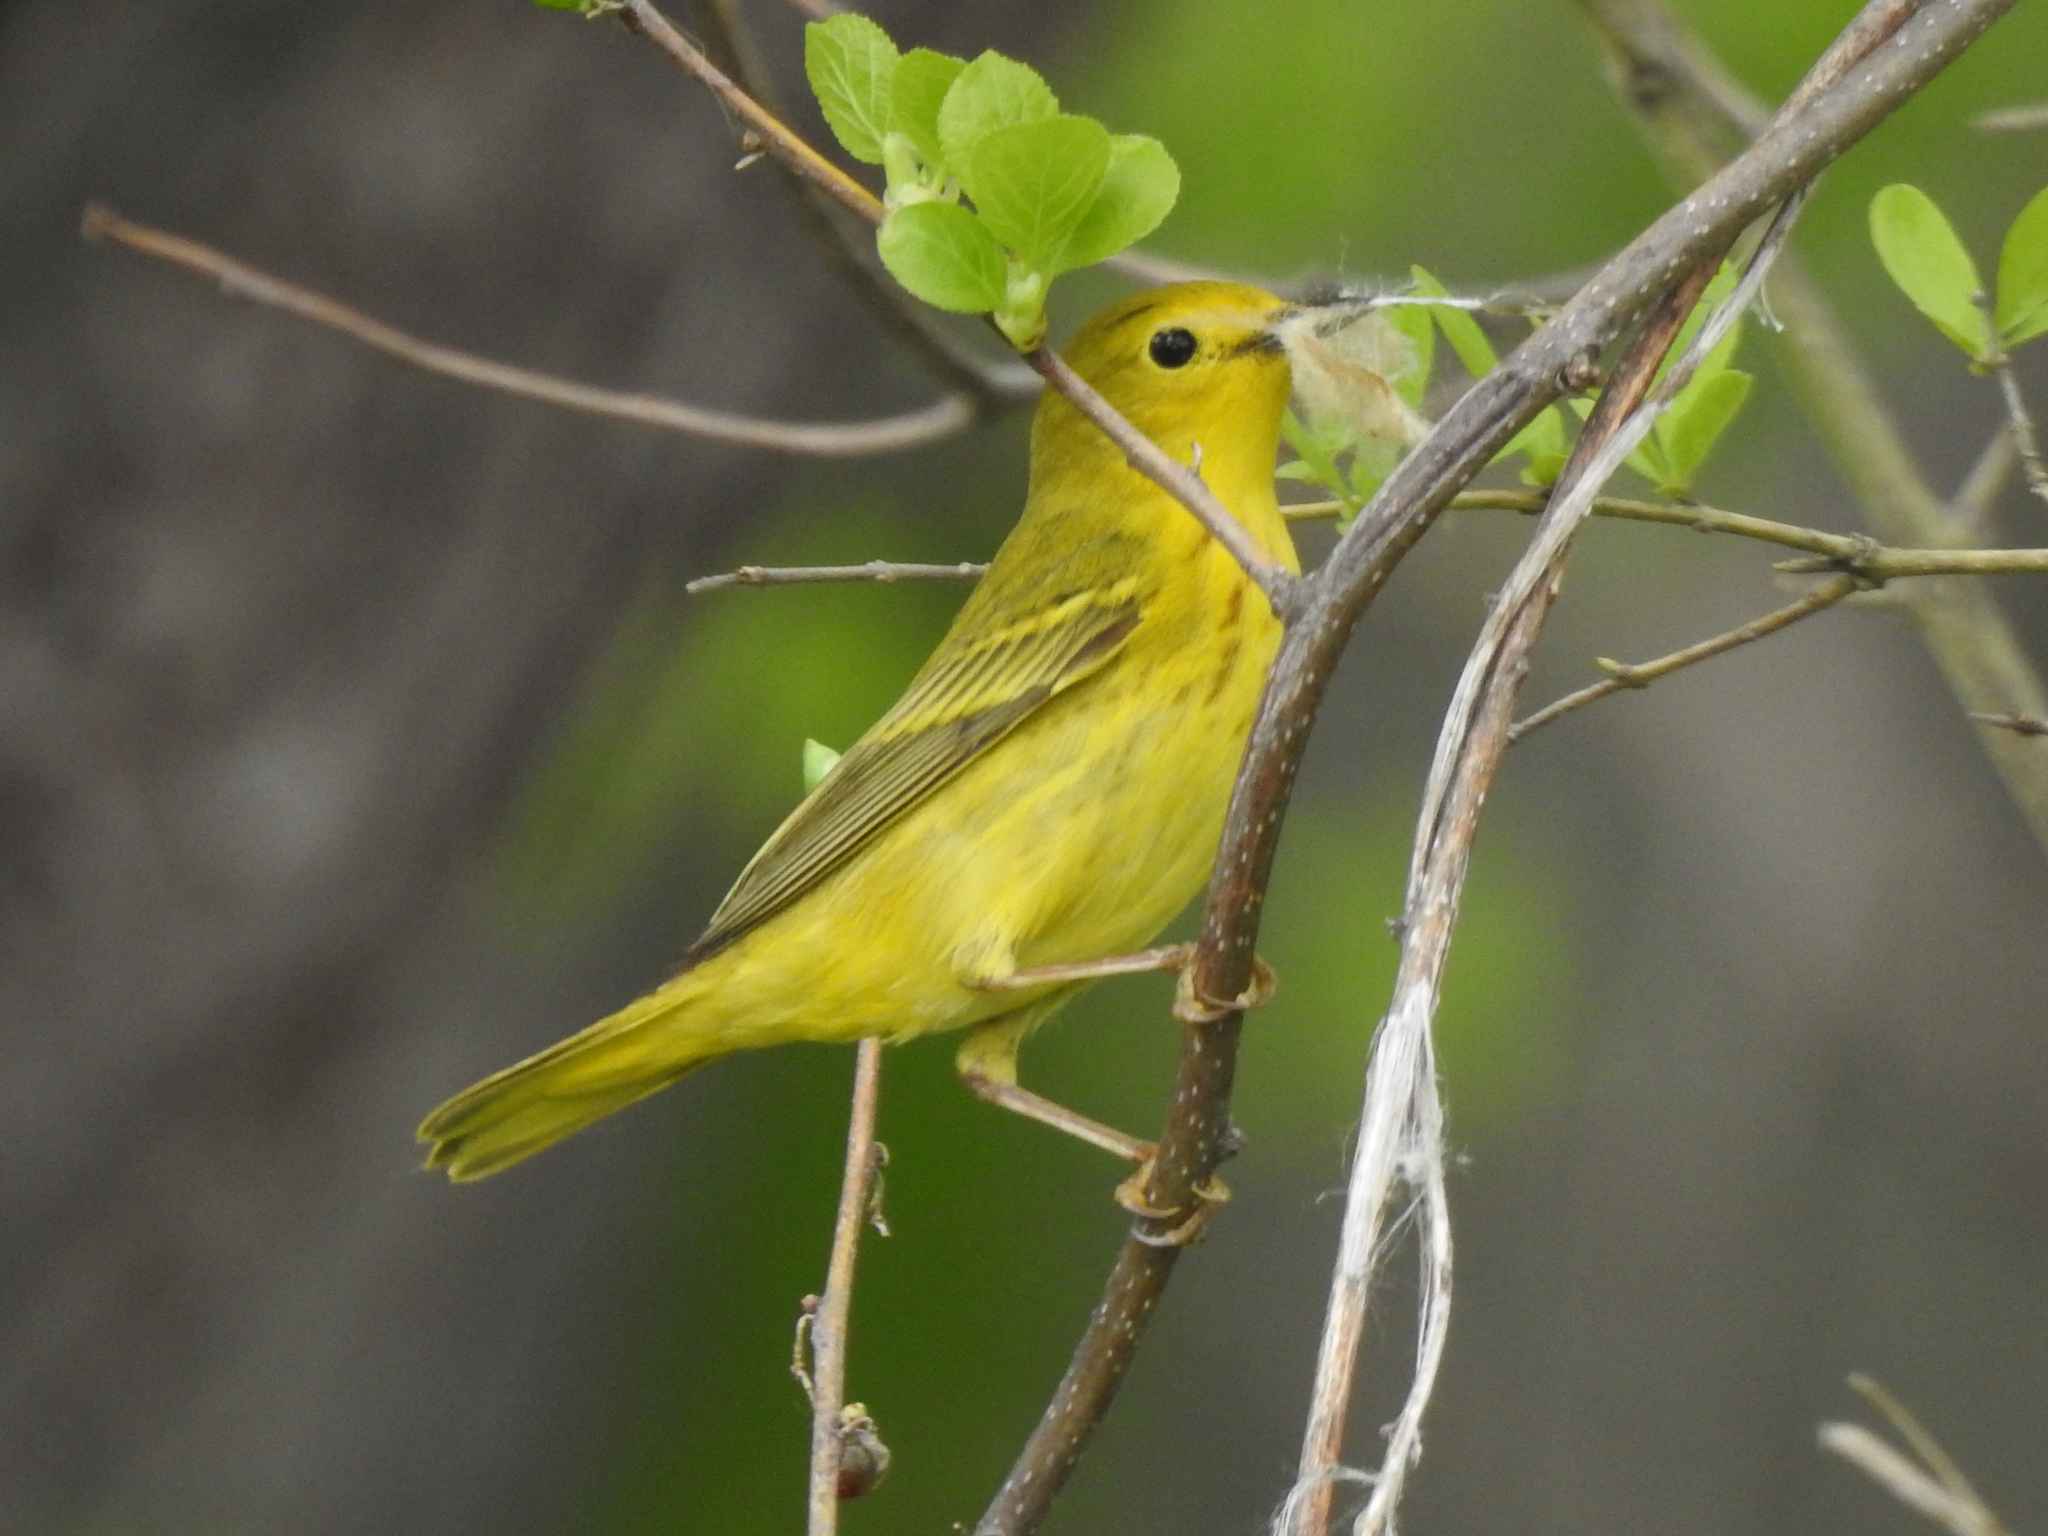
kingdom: Animalia
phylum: Chordata
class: Aves
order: Passeriformes
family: Parulidae
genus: Setophaga
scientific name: Setophaga petechia
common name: Yellow warbler
